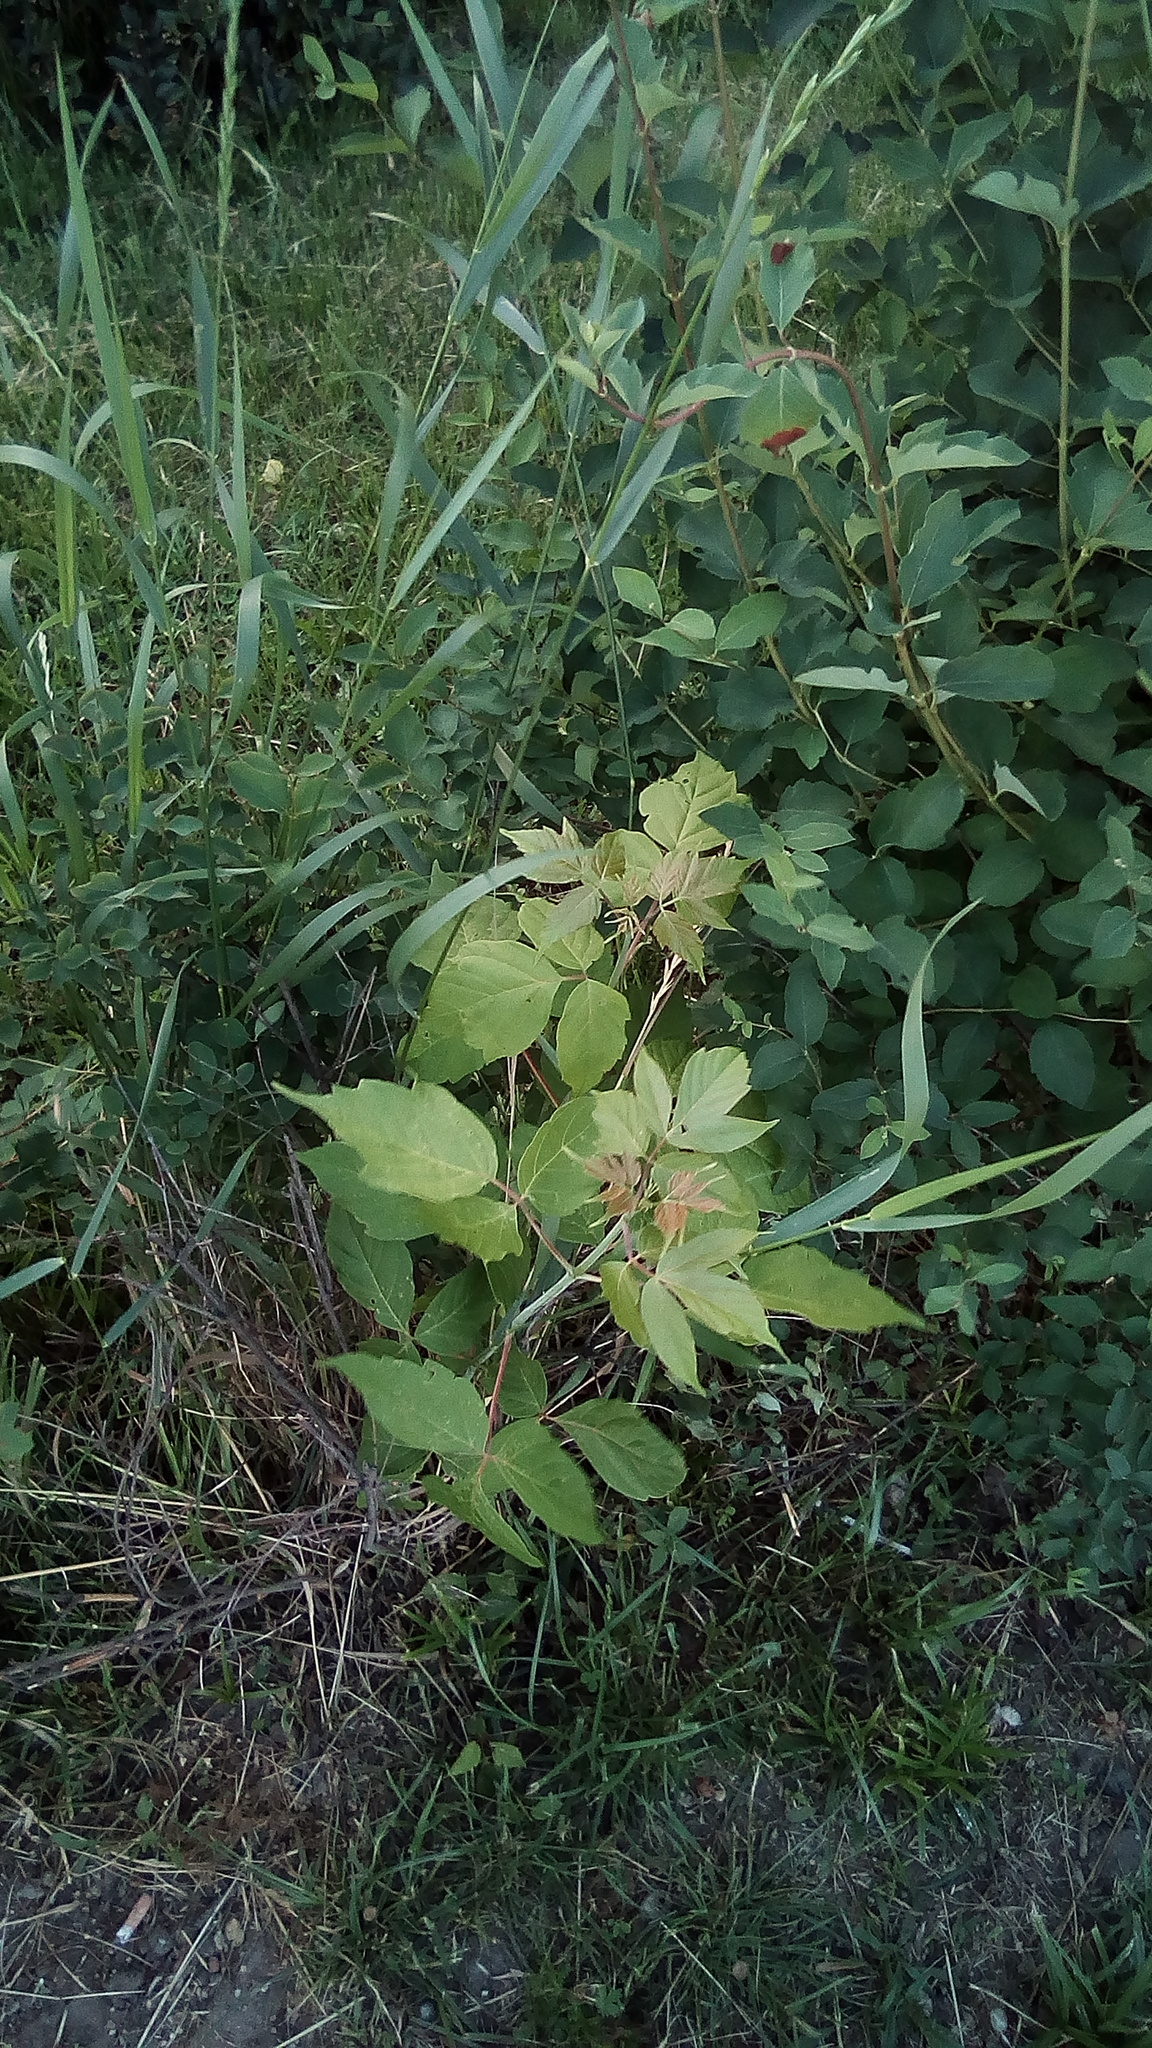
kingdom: Plantae
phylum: Tracheophyta
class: Magnoliopsida
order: Sapindales
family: Sapindaceae
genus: Acer
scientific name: Acer negundo
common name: Ashleaf maple
